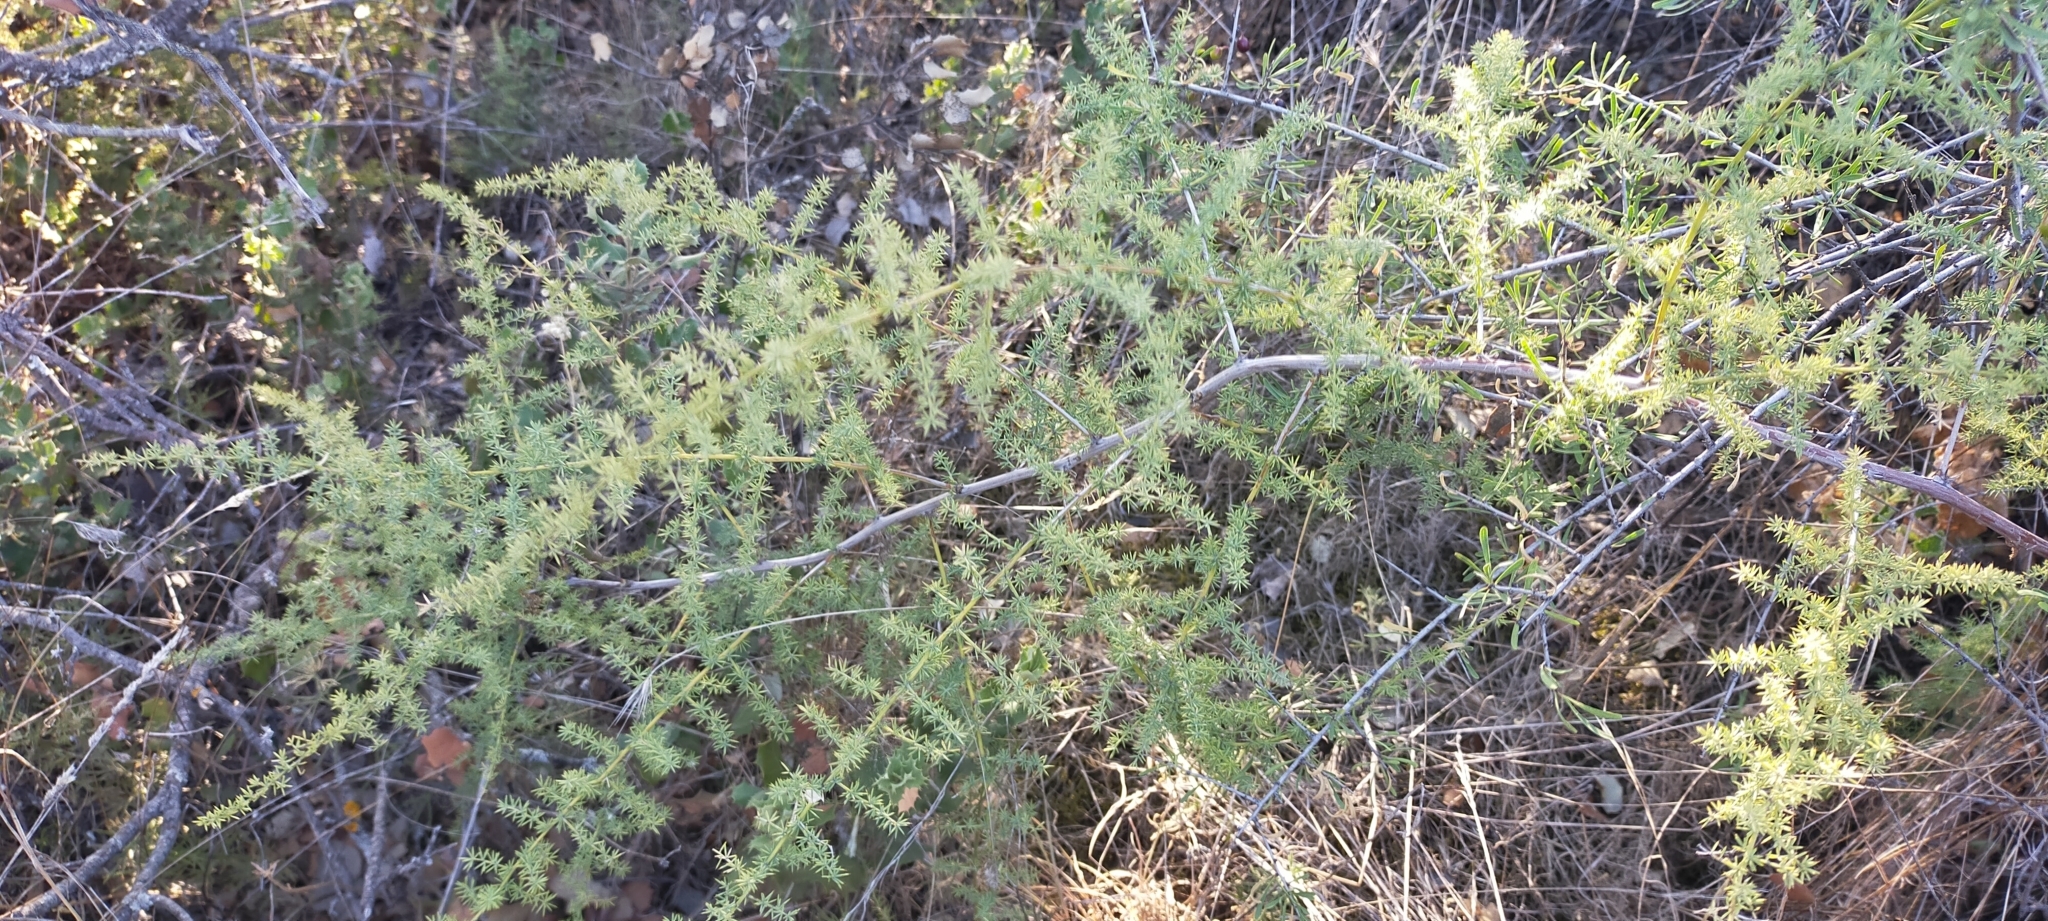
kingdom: Plantae
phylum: Tracheophyta
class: Liliopsida
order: Asparagales
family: Asparagaceae
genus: Asparagus
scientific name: Asparagus acutifolius
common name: Wild asparagus
